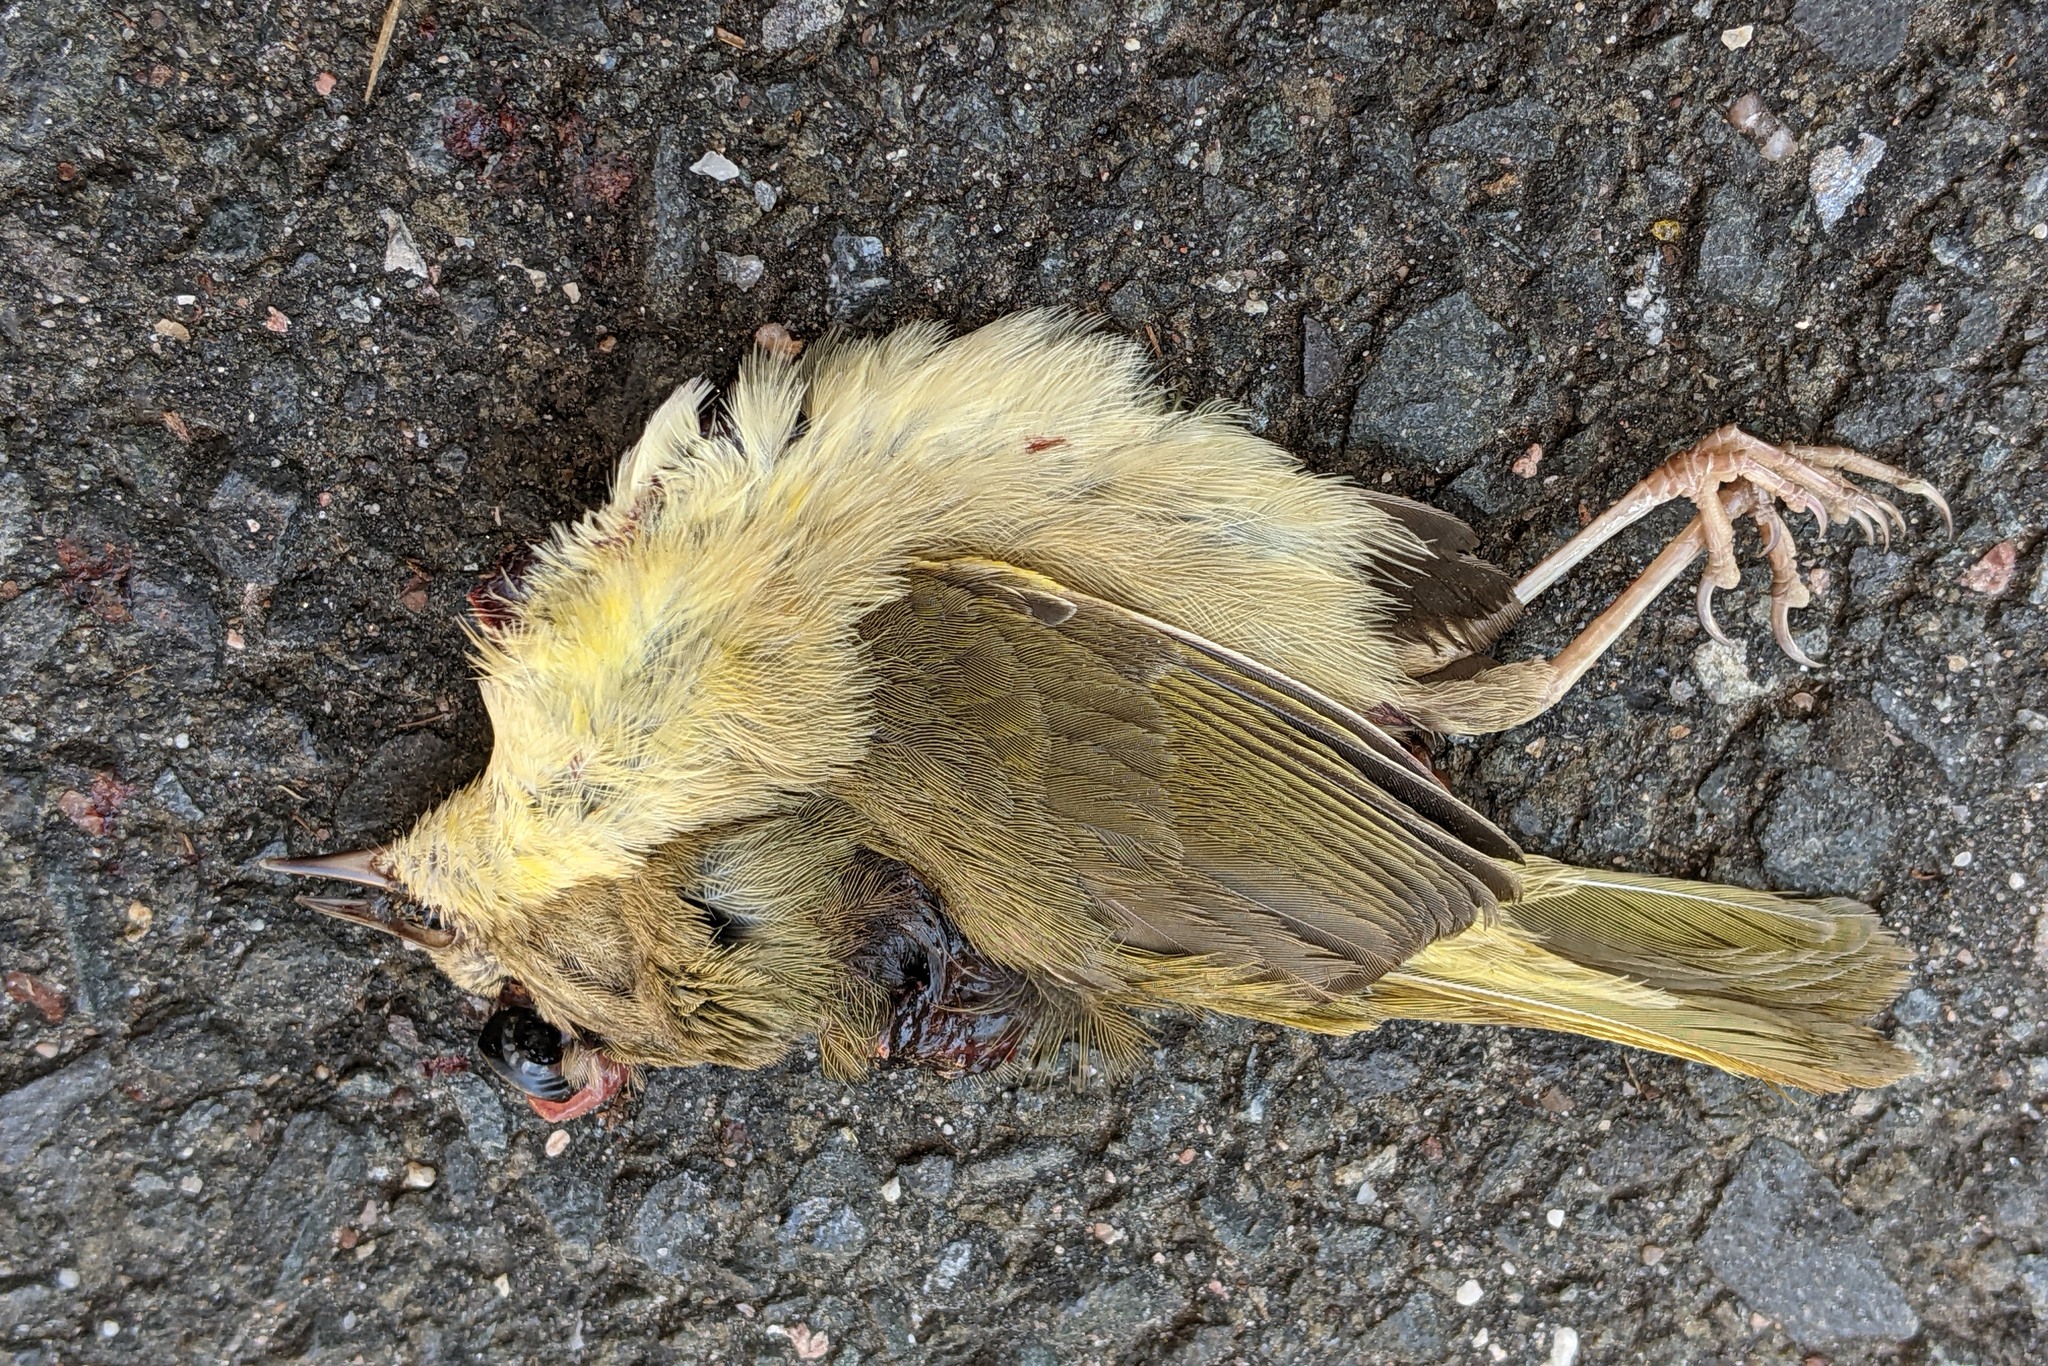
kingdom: Animalia
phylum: Chordata
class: Aves
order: Passeriformes
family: Parulidae
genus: Geothlypis
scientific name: Geothlypis trichas
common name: Common yellowthroat
